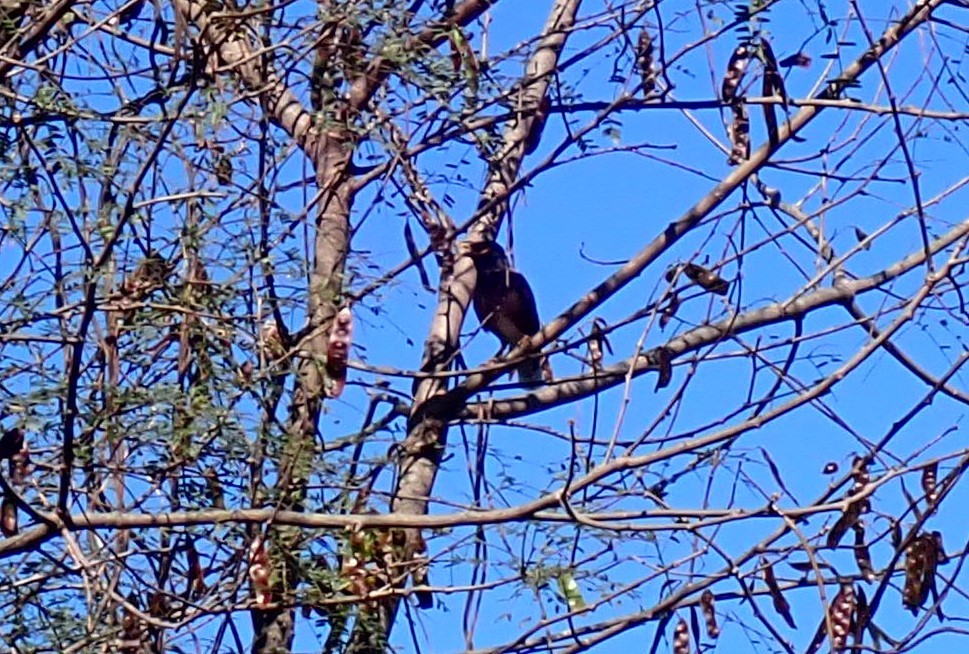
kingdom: Animalia
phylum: Chordata
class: Aves
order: Passeriformes
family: Sturnidae
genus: Acridotheres
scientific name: Acridotheres tristis
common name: Common myna
